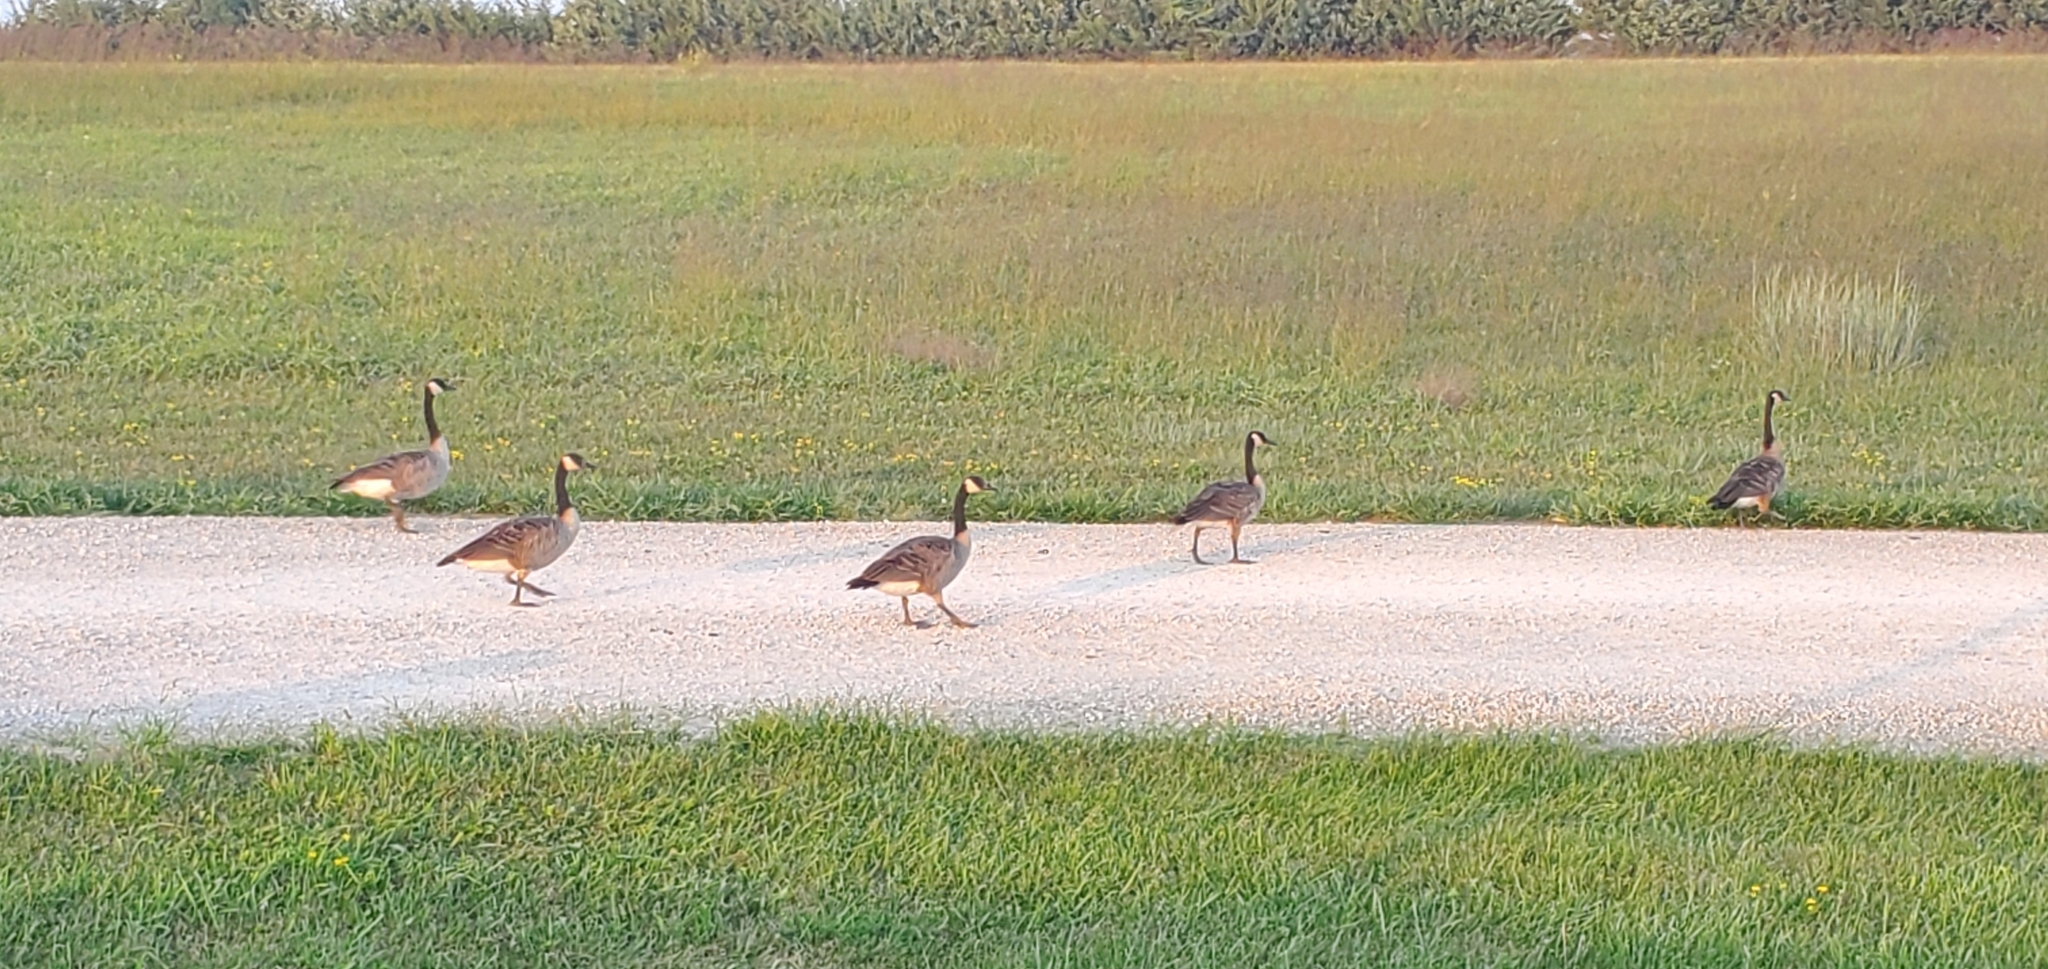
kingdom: Animalia
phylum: Chordata
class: Aves
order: Anseriformes
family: Anatidae
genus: Branta
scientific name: Branta canadensis
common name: Canada goose
